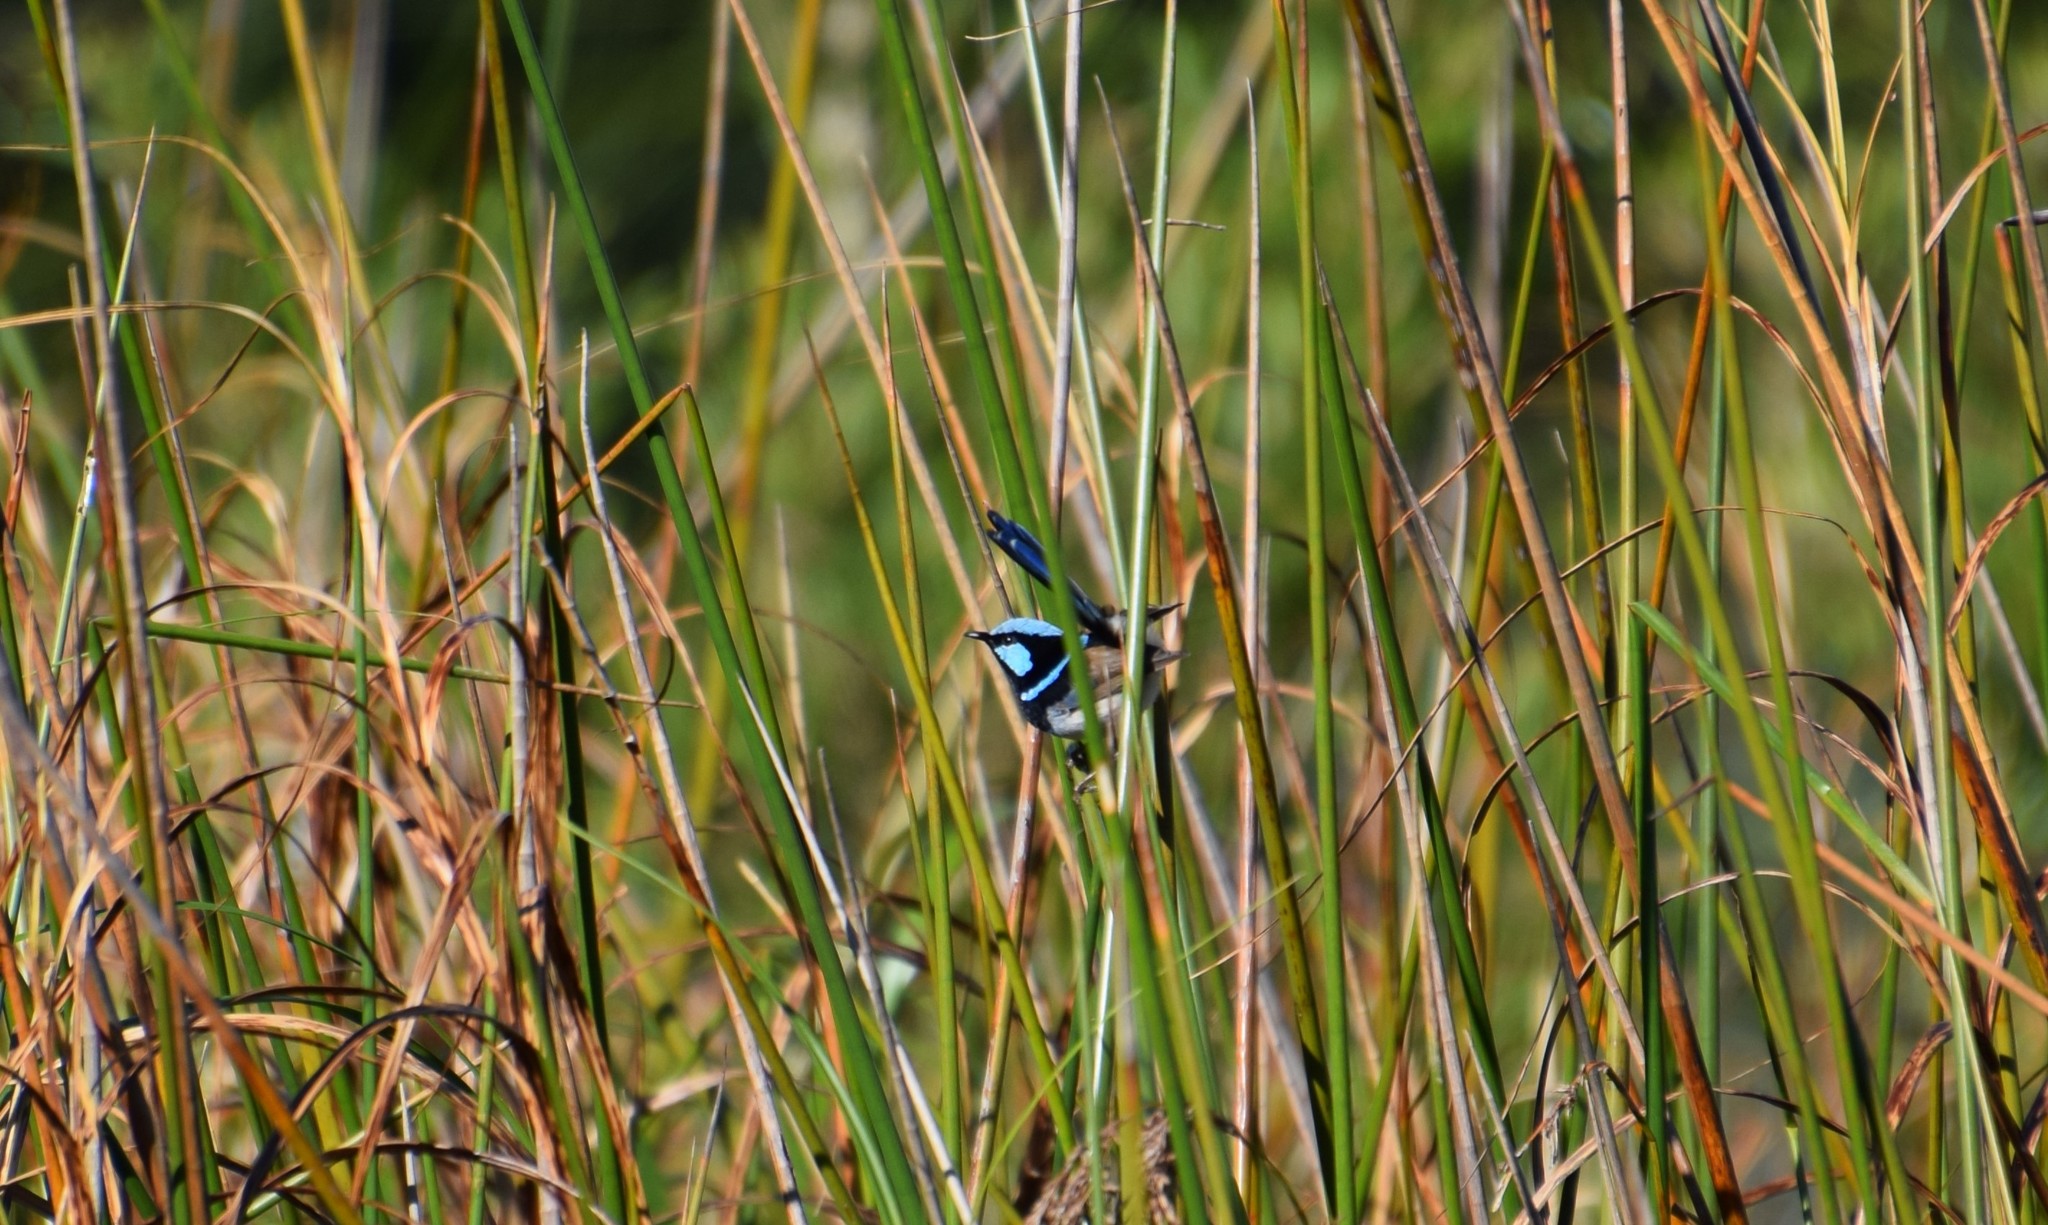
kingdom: Animalia
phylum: Chordata
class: Aves
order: Passeriformes
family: Maluridae
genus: Malurus
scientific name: Malurus cyaneus
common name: Superb fairywren
